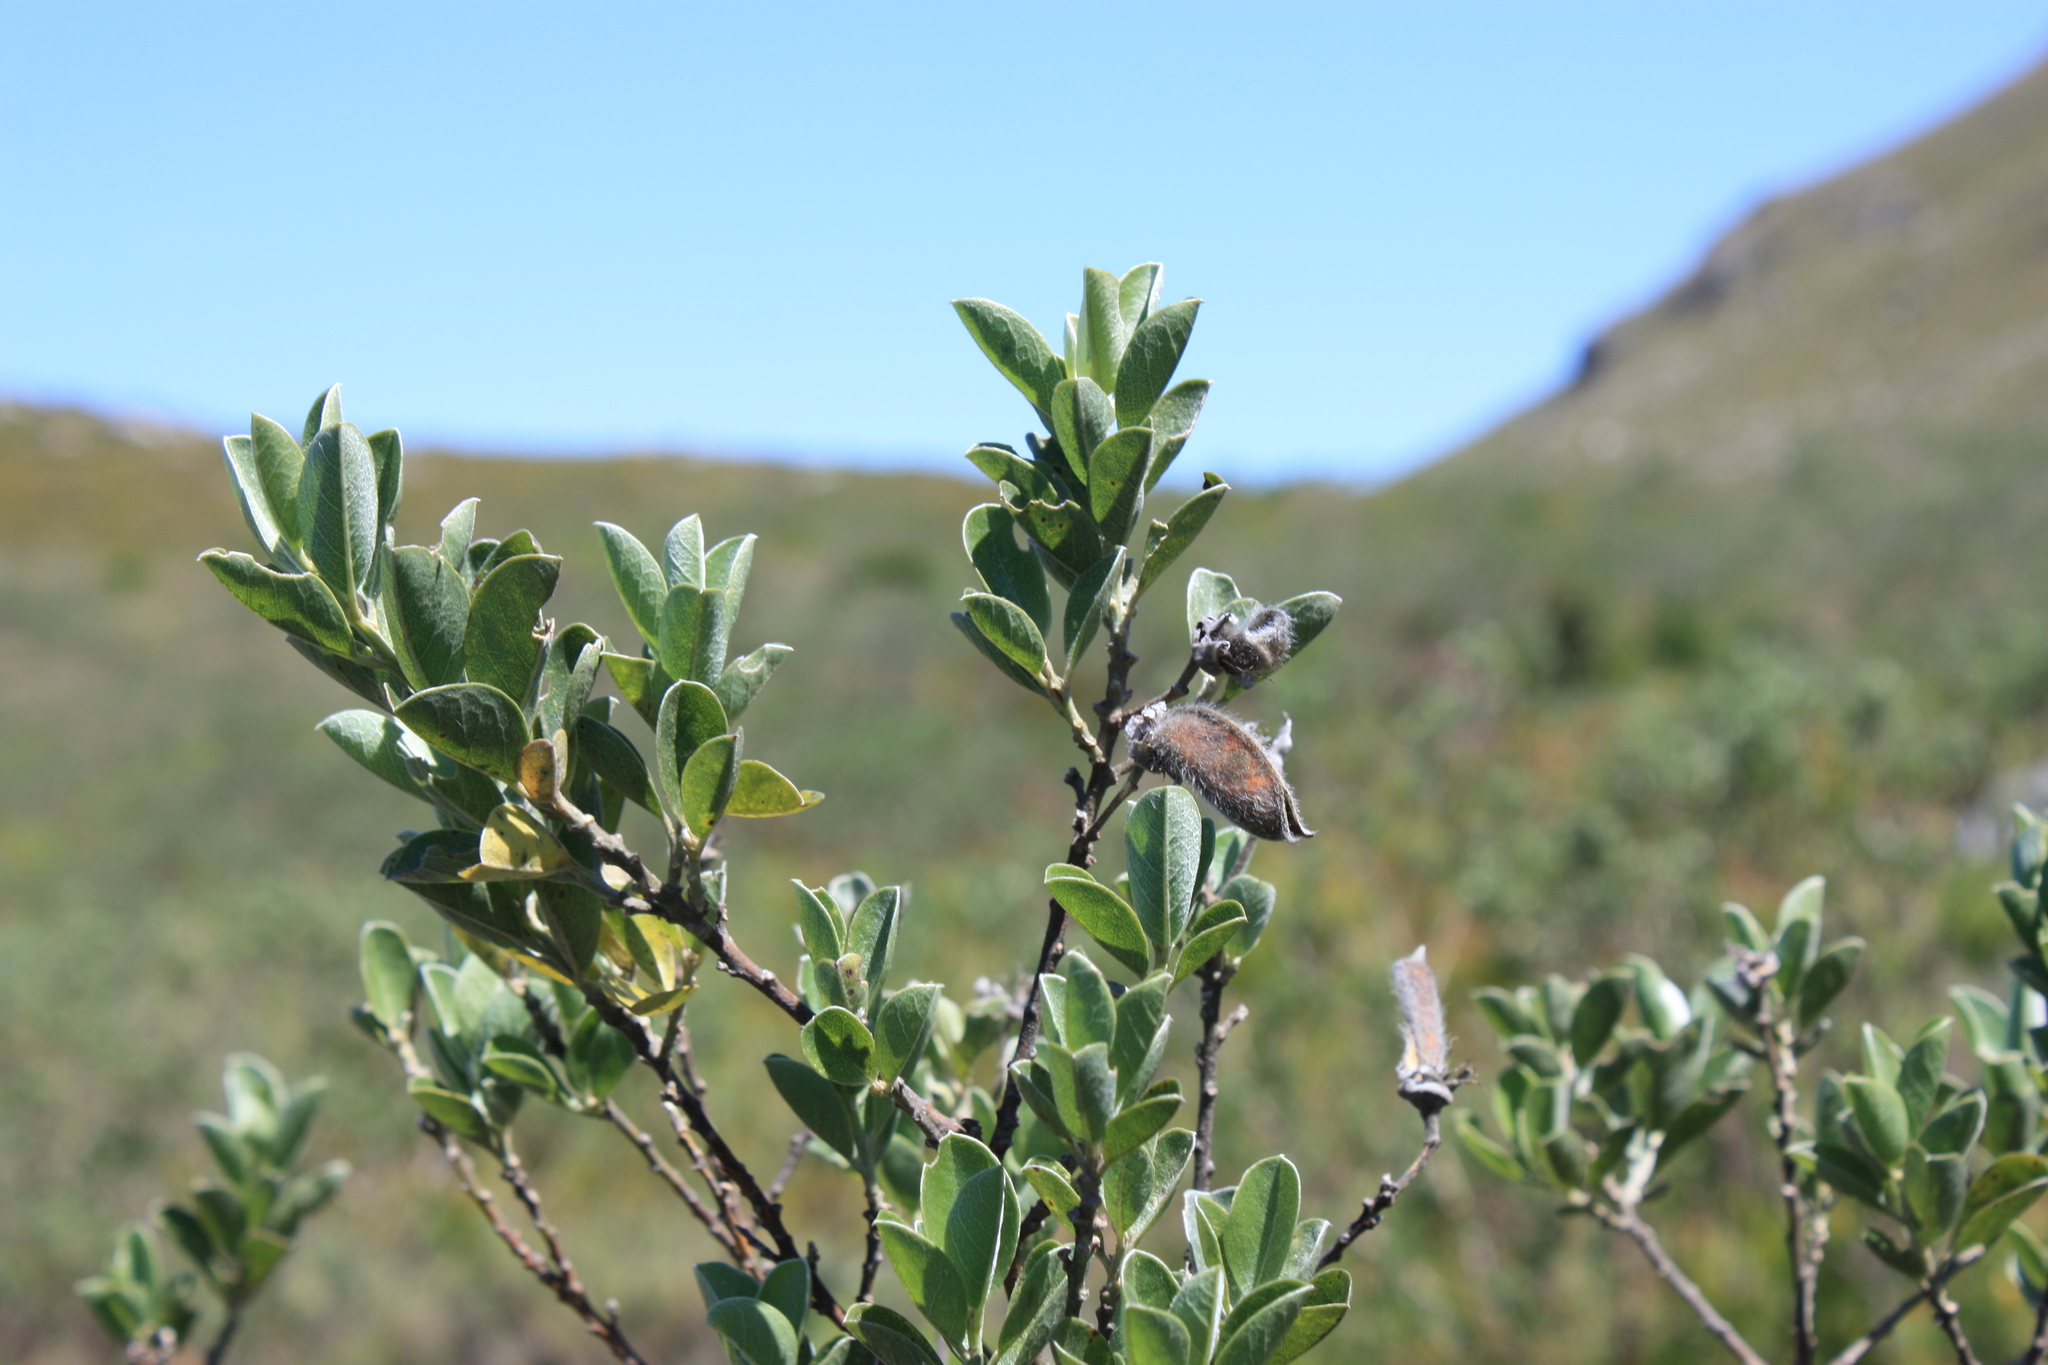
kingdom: Plantae
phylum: Tracheophyta
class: Magnoliopsida
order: Fabales
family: Fabaceae
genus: Podalyria
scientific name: Podalyria calyptrata
